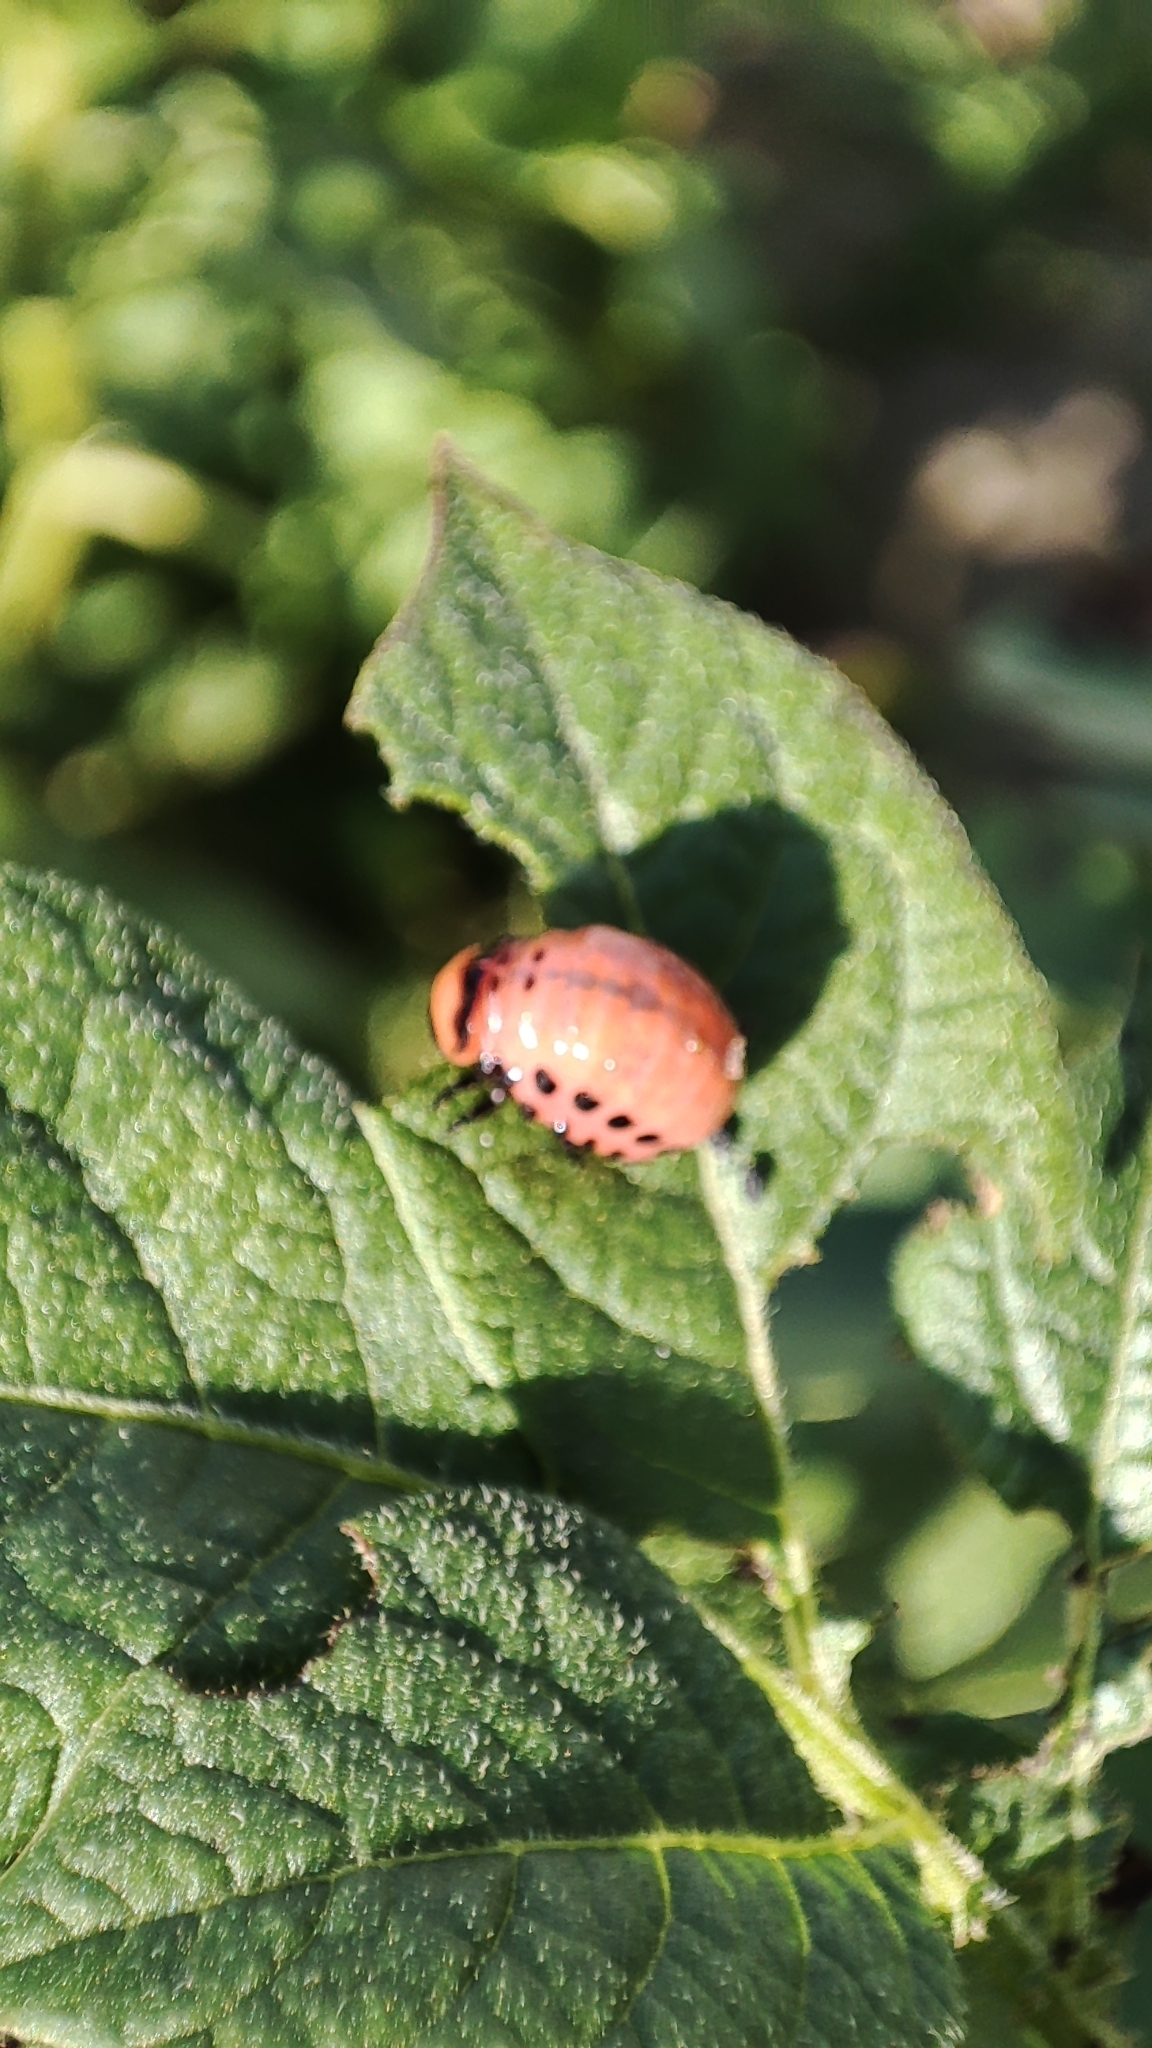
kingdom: Animalia
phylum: Arthropoda
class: Insecta
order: Coleoptera
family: Chrysomelidae
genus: Leptinotarsa
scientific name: Leptinotarsa decemlineata
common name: Colorado potato beetle
